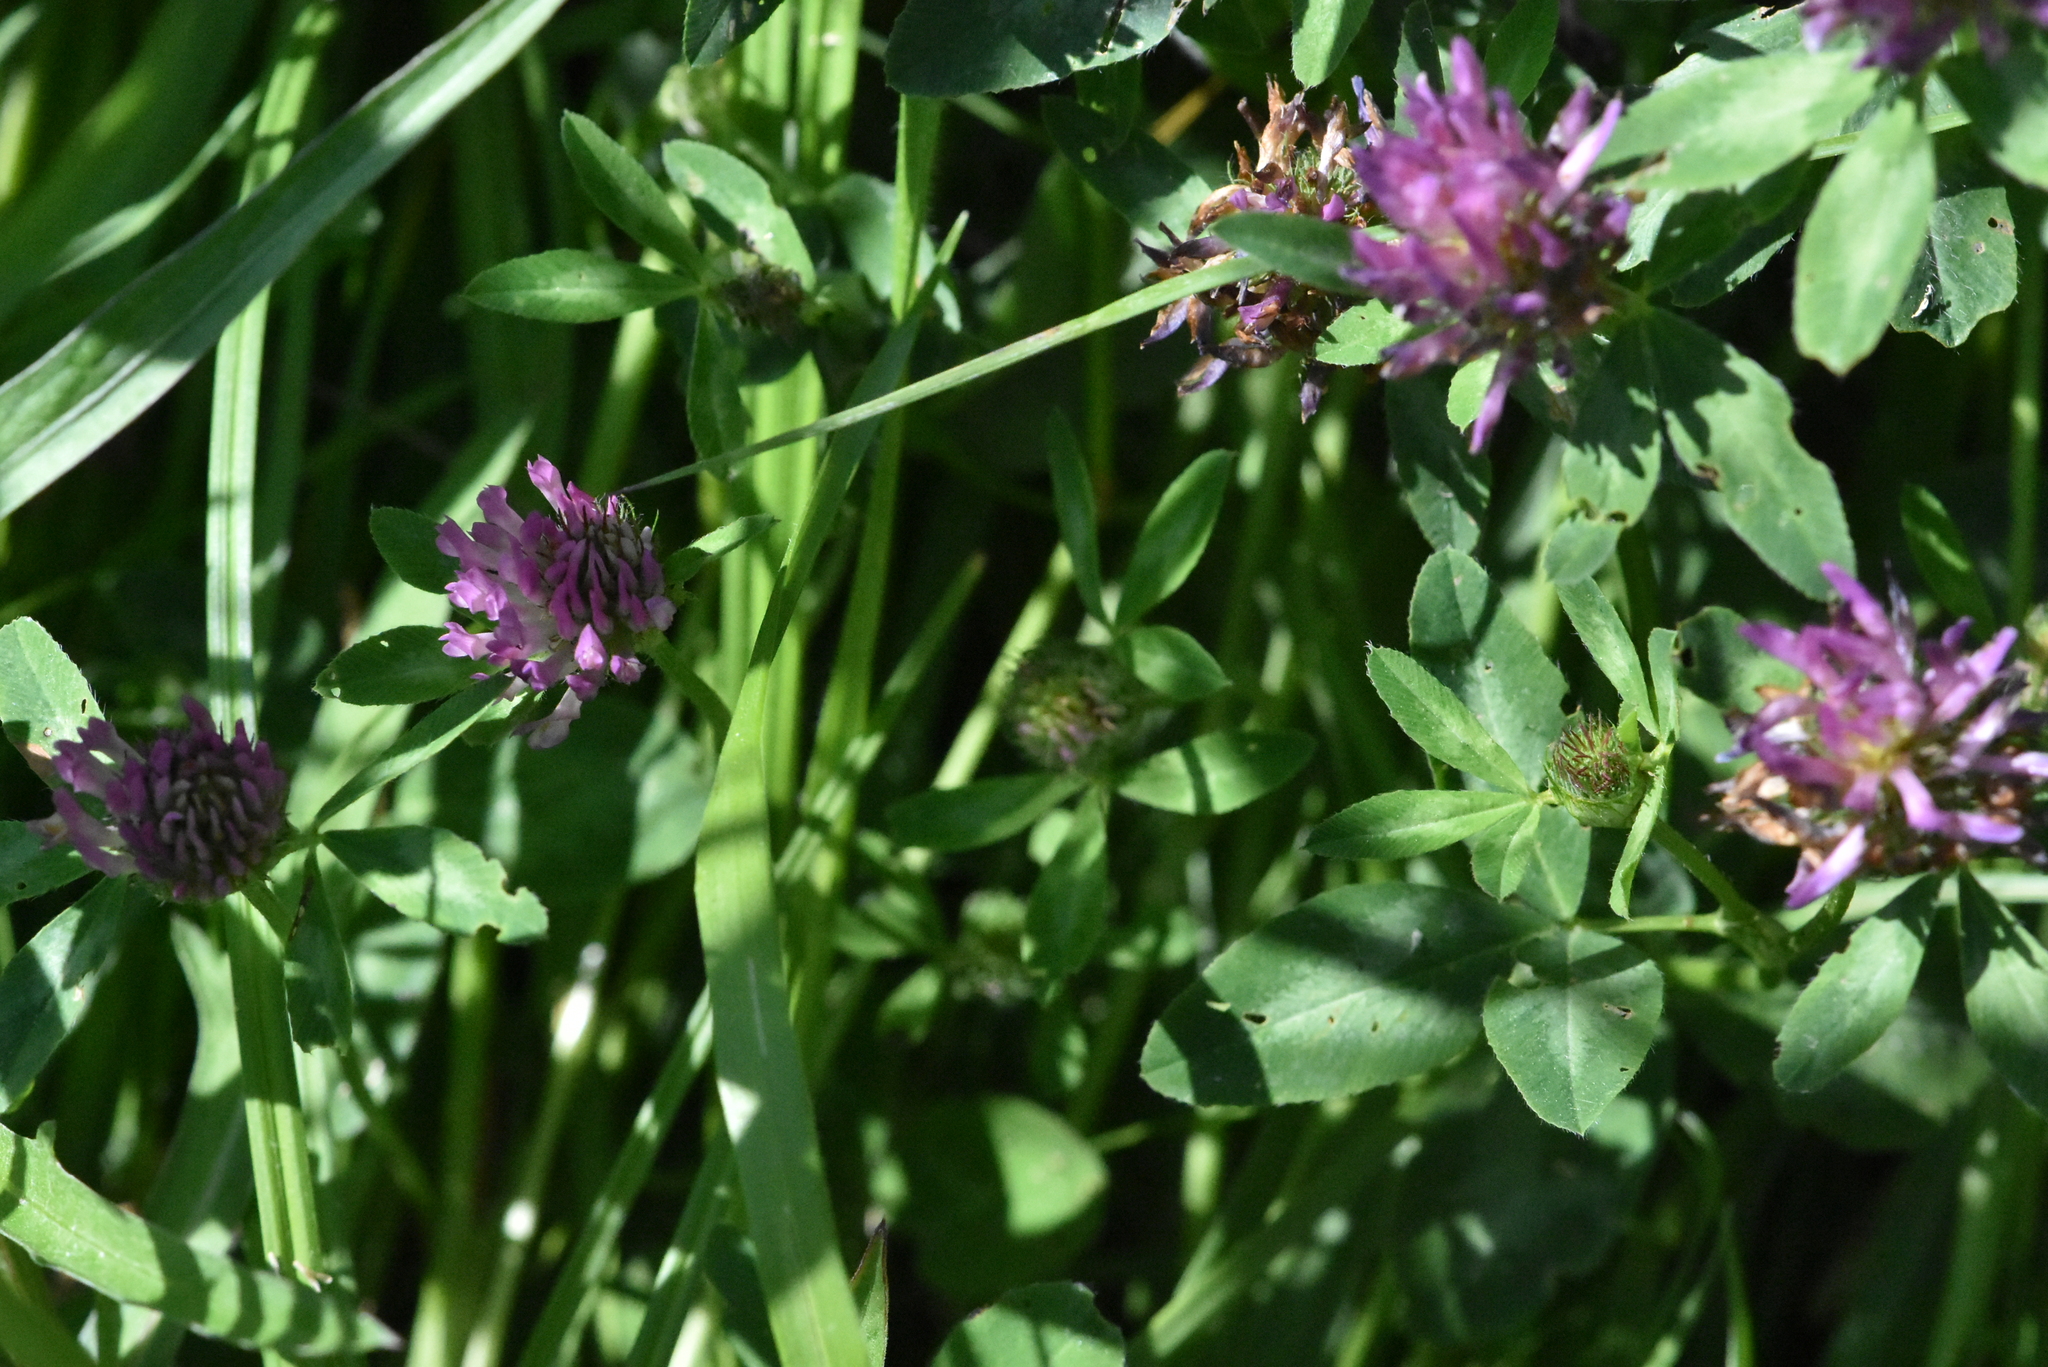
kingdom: Plantae
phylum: Tracheophyta
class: Magnoliopsida
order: Fabales
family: Fabaceae
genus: Trifolium
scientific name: Trifolium pratense
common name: Red clover
